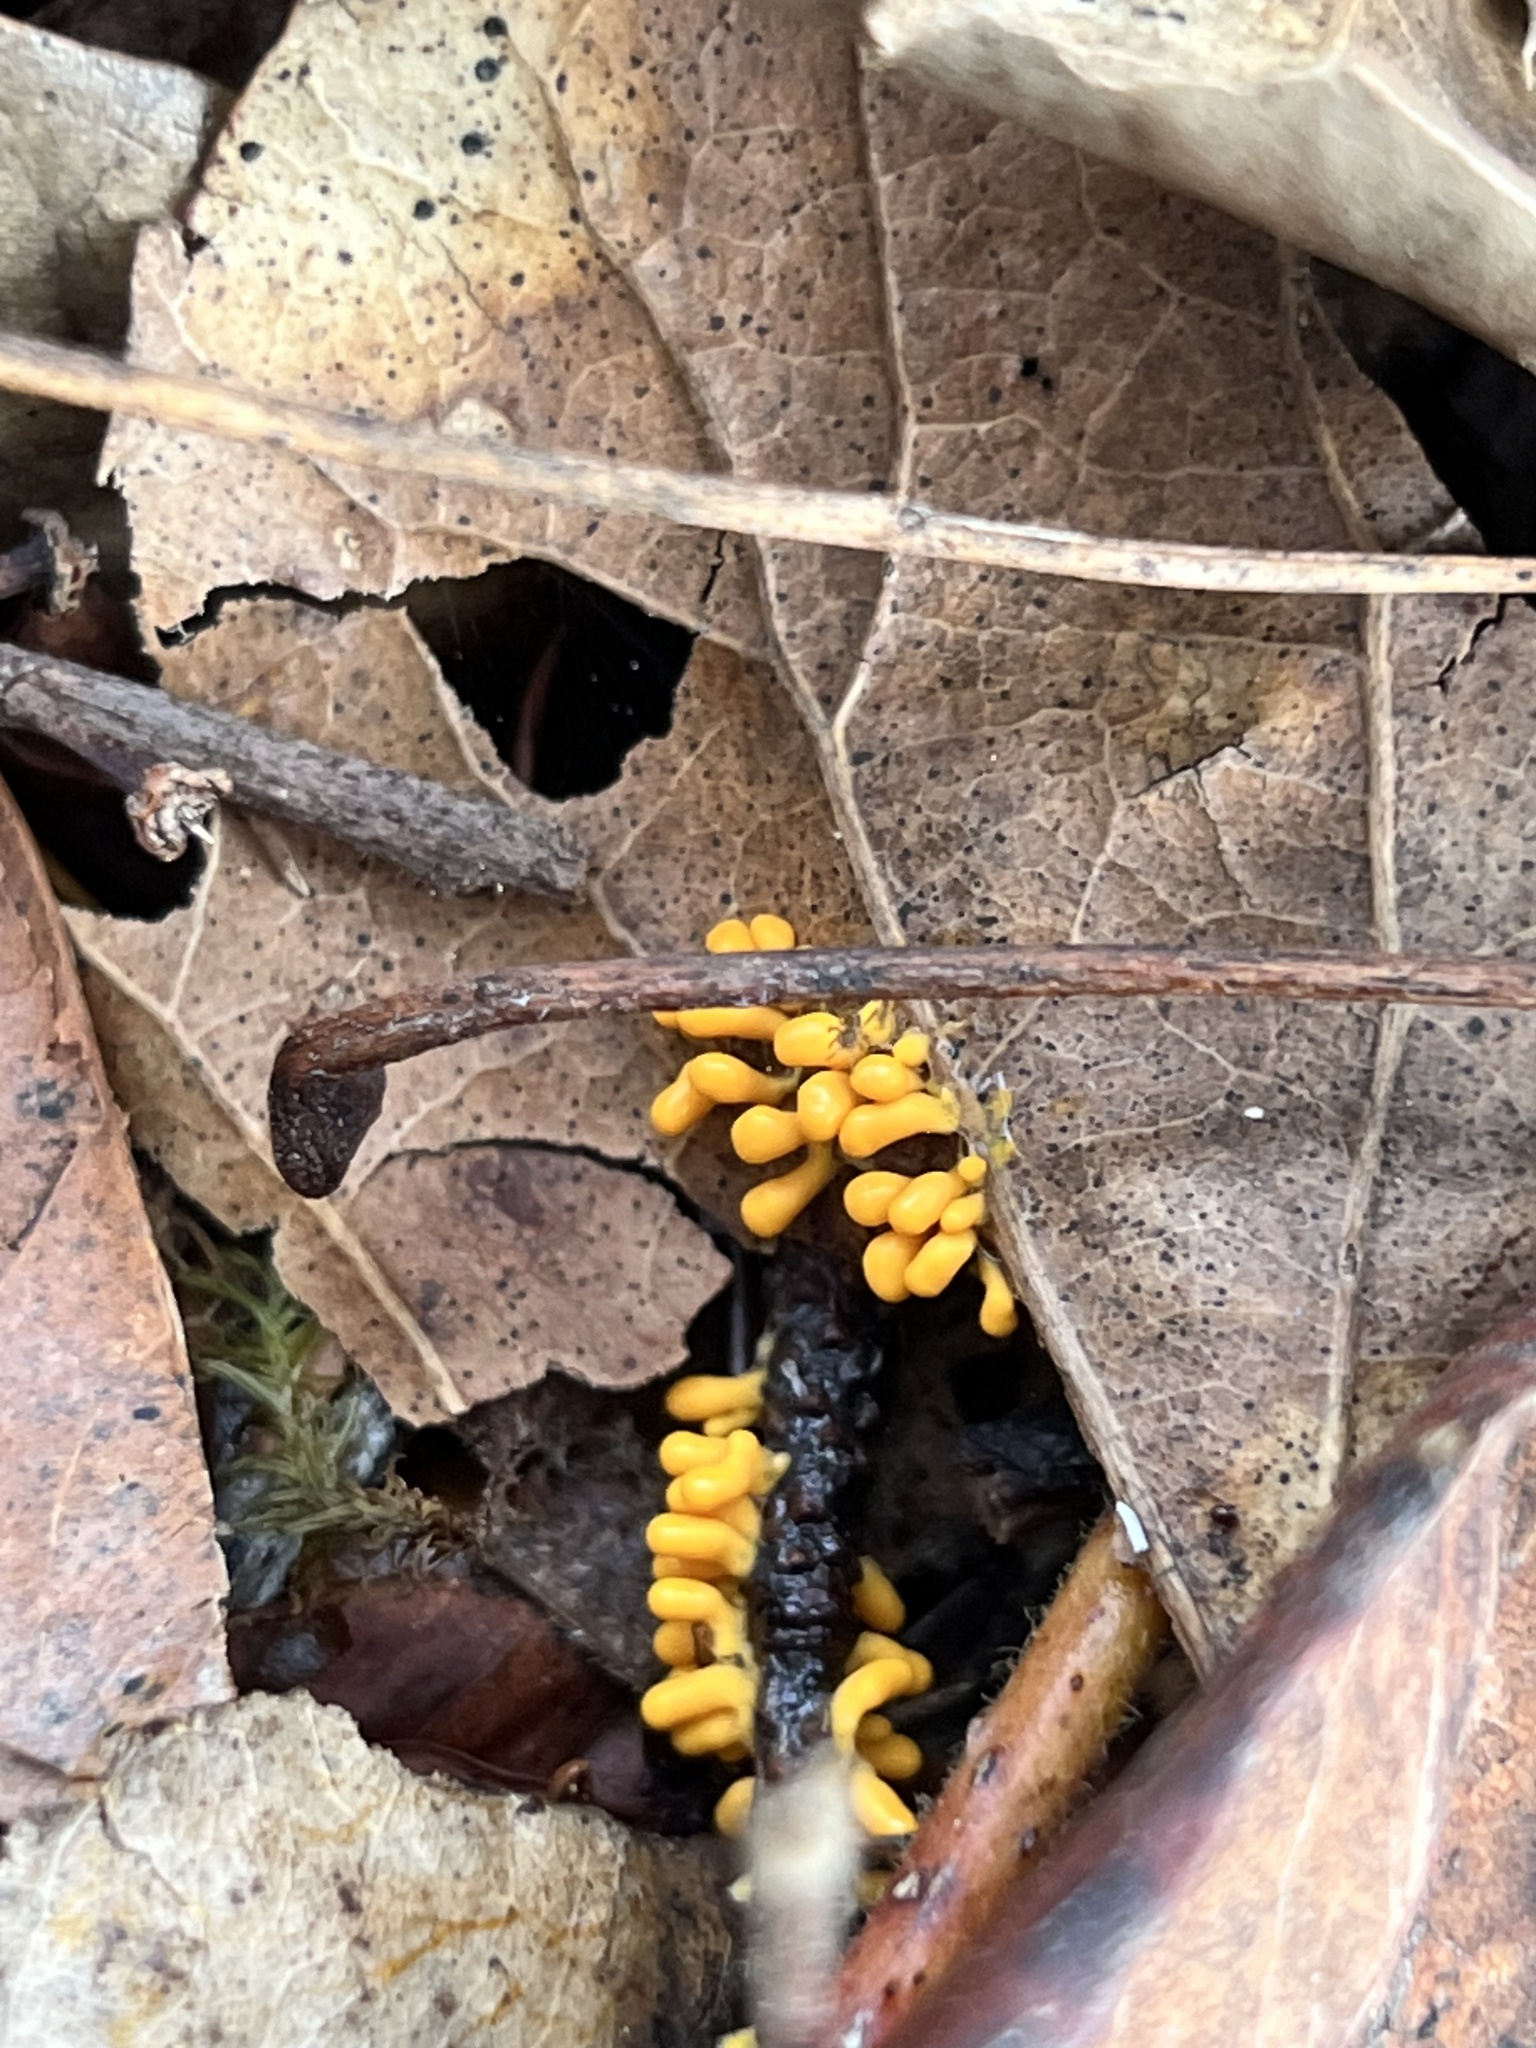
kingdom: Protozoa
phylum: Mycetozoa
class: Myxomycetes
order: Physarales
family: Physaraceae
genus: Leocarpus
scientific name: Leocarpus fragilis
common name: Insect-egg slime
